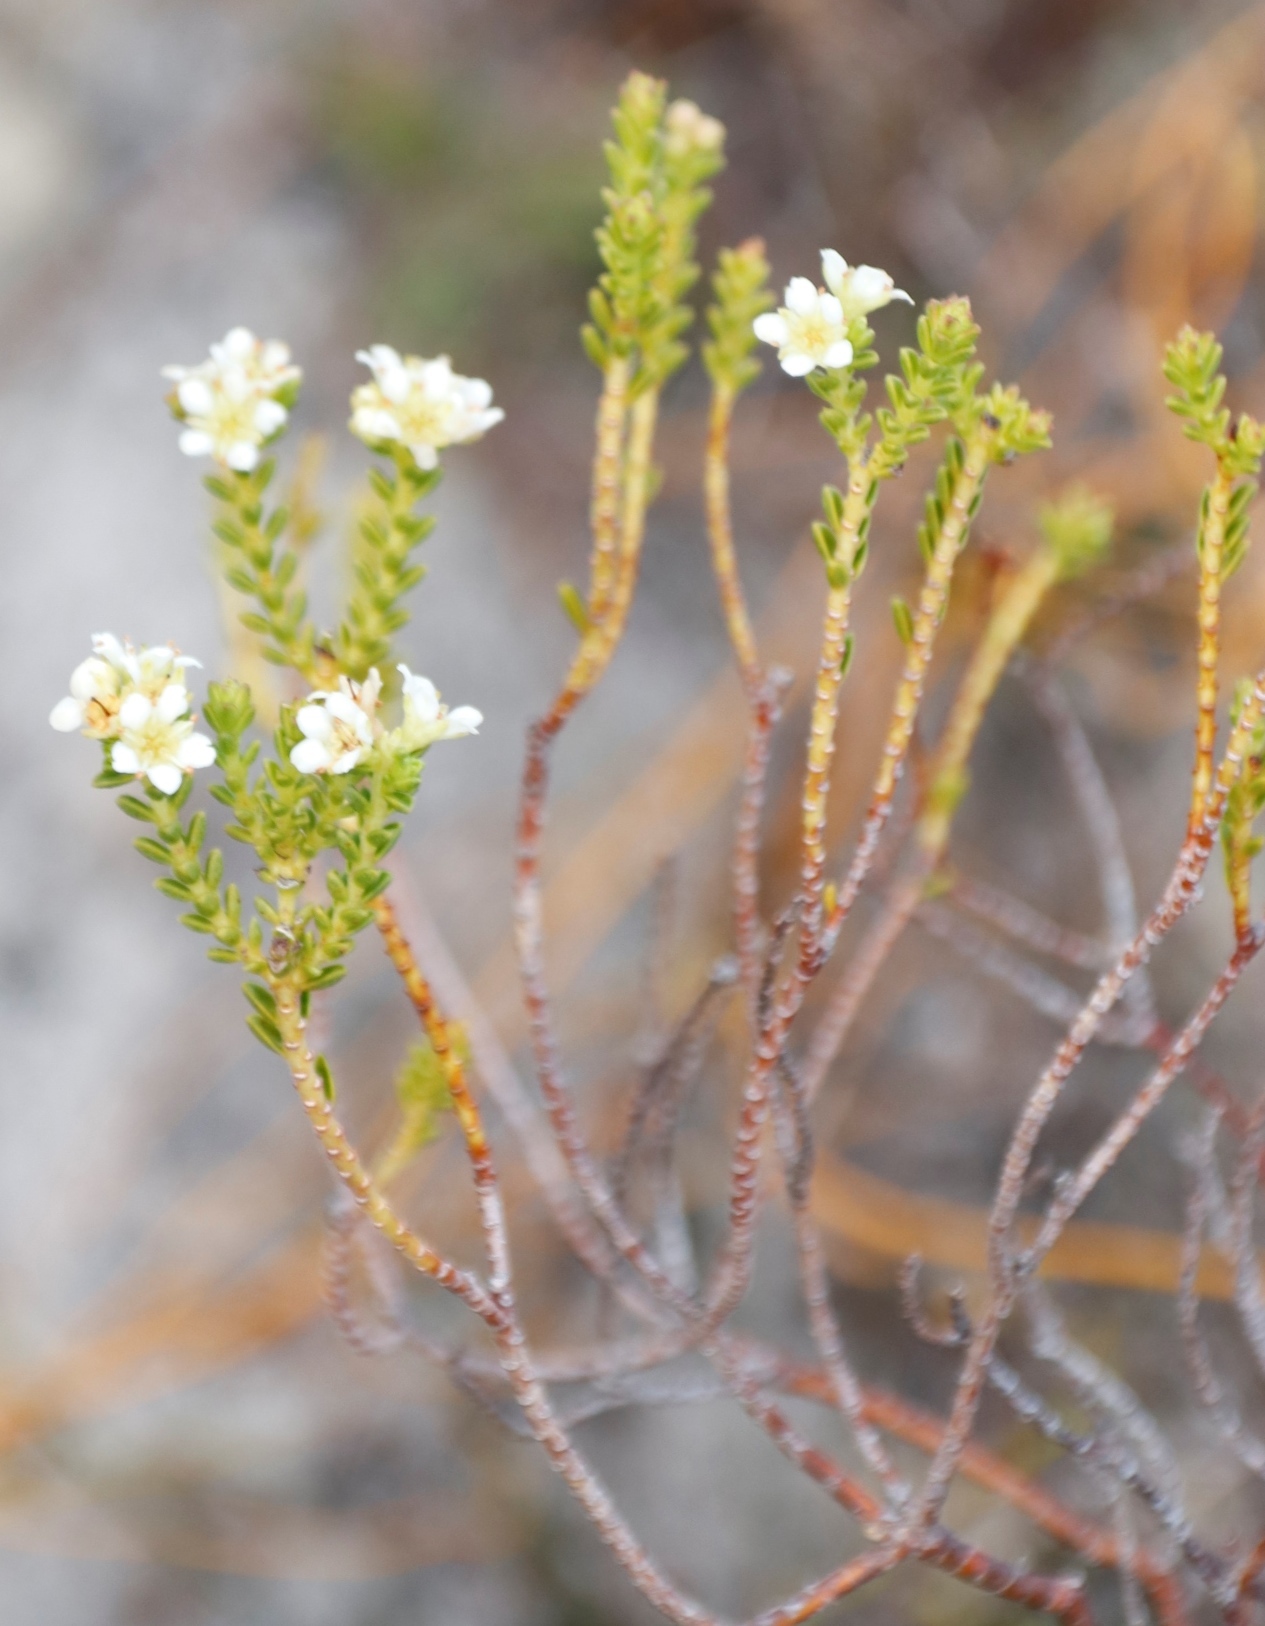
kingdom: Plantae
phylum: Tracheophyta
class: Magnoliopsida
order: Sapindales
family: Rutaceae
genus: Diosma
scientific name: Diosma oppositifolia
